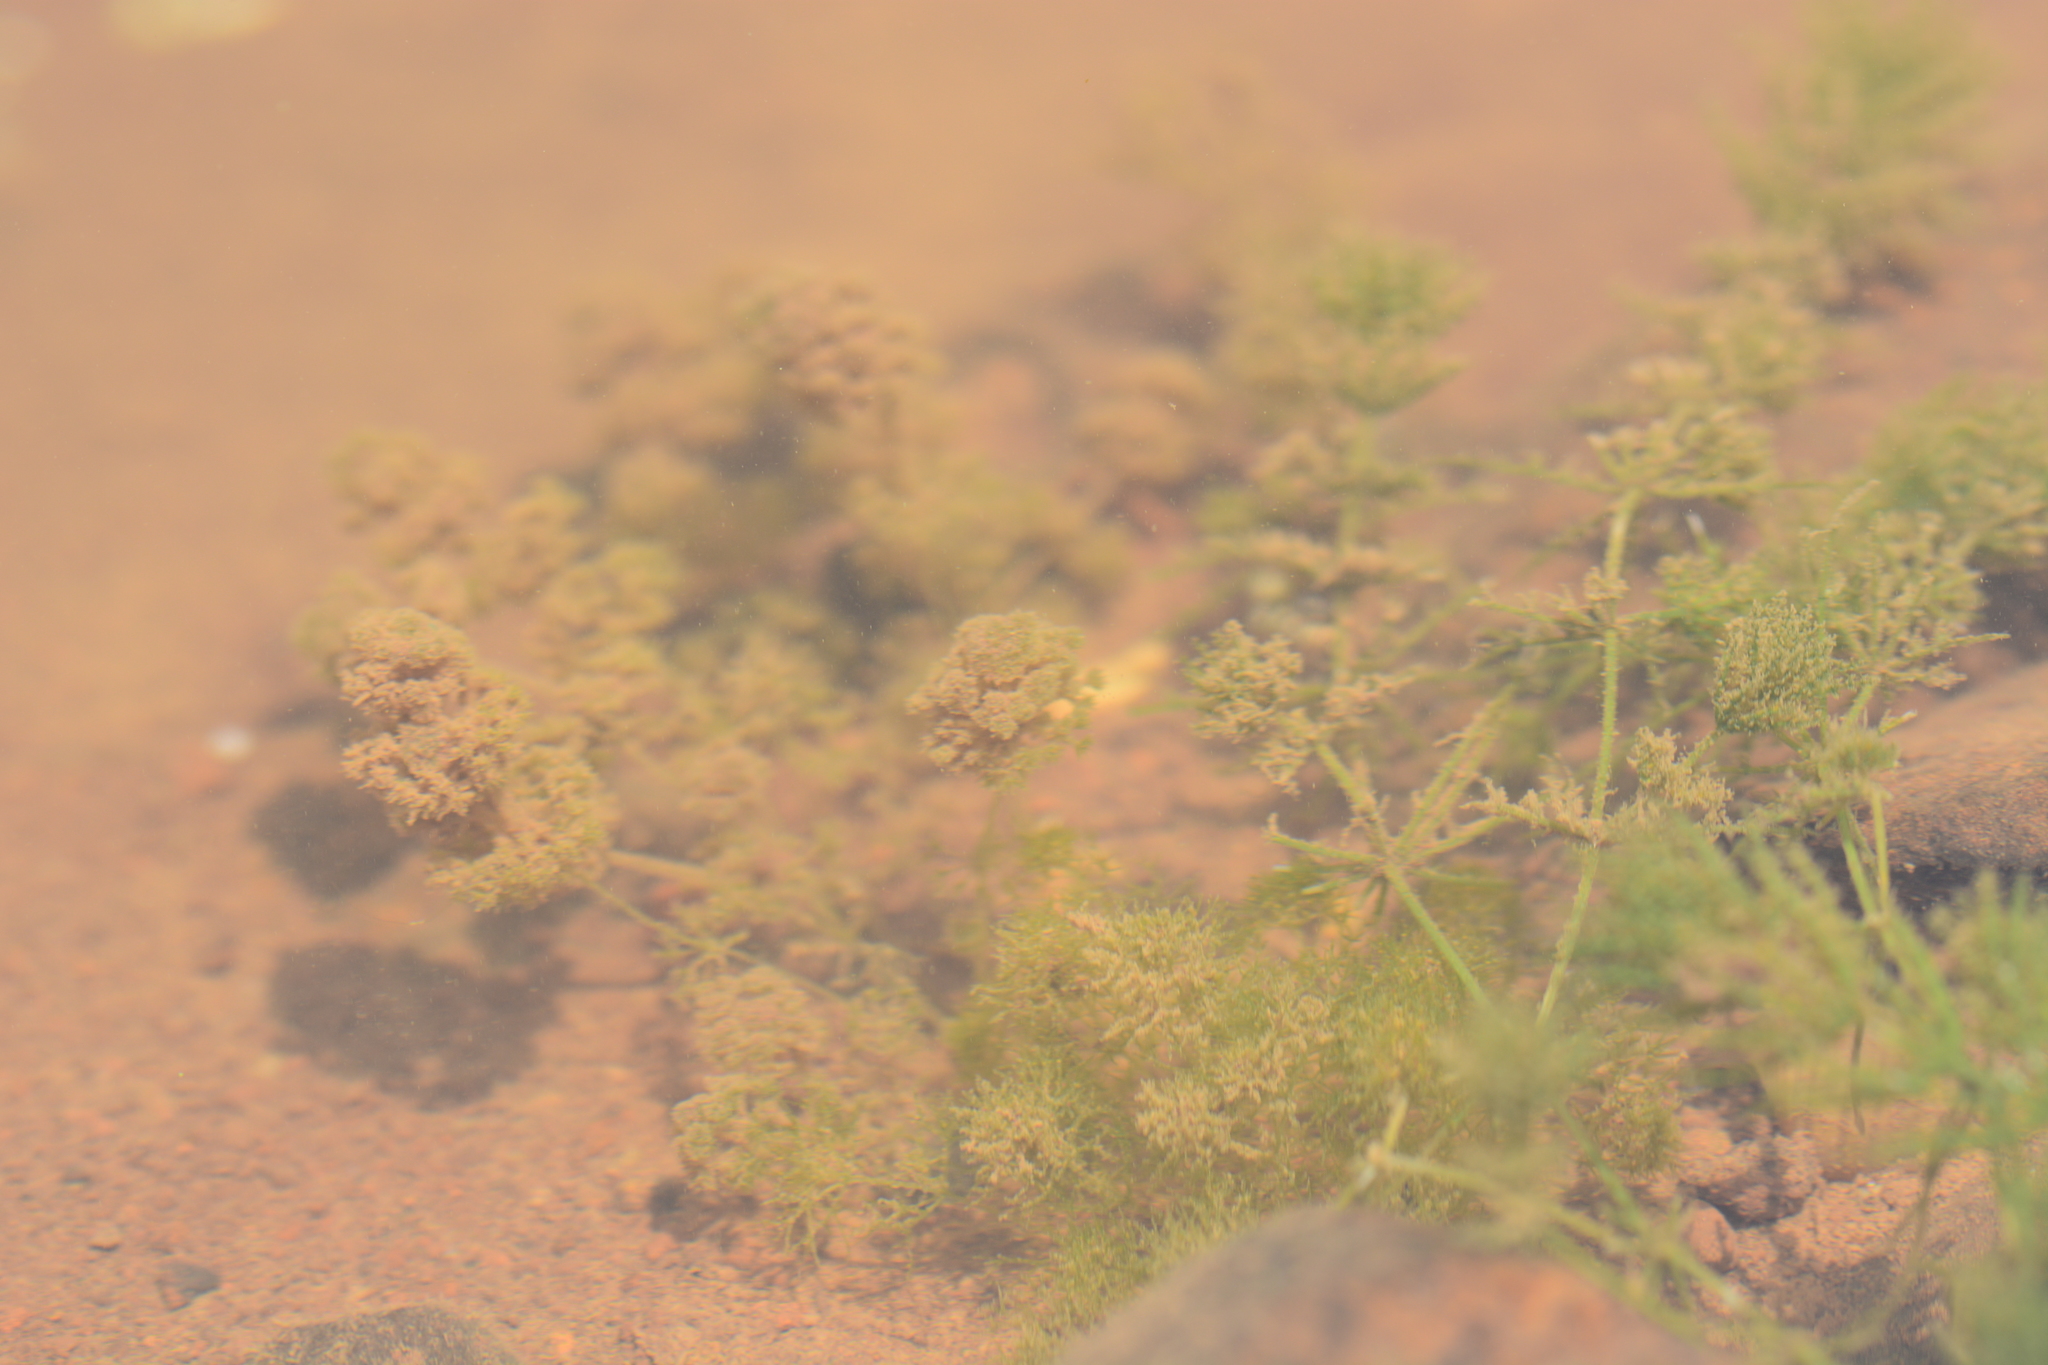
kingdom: Plantae
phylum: Charophyta
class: Charophyceae
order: Charales
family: Characeae
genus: Chara
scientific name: Chara
